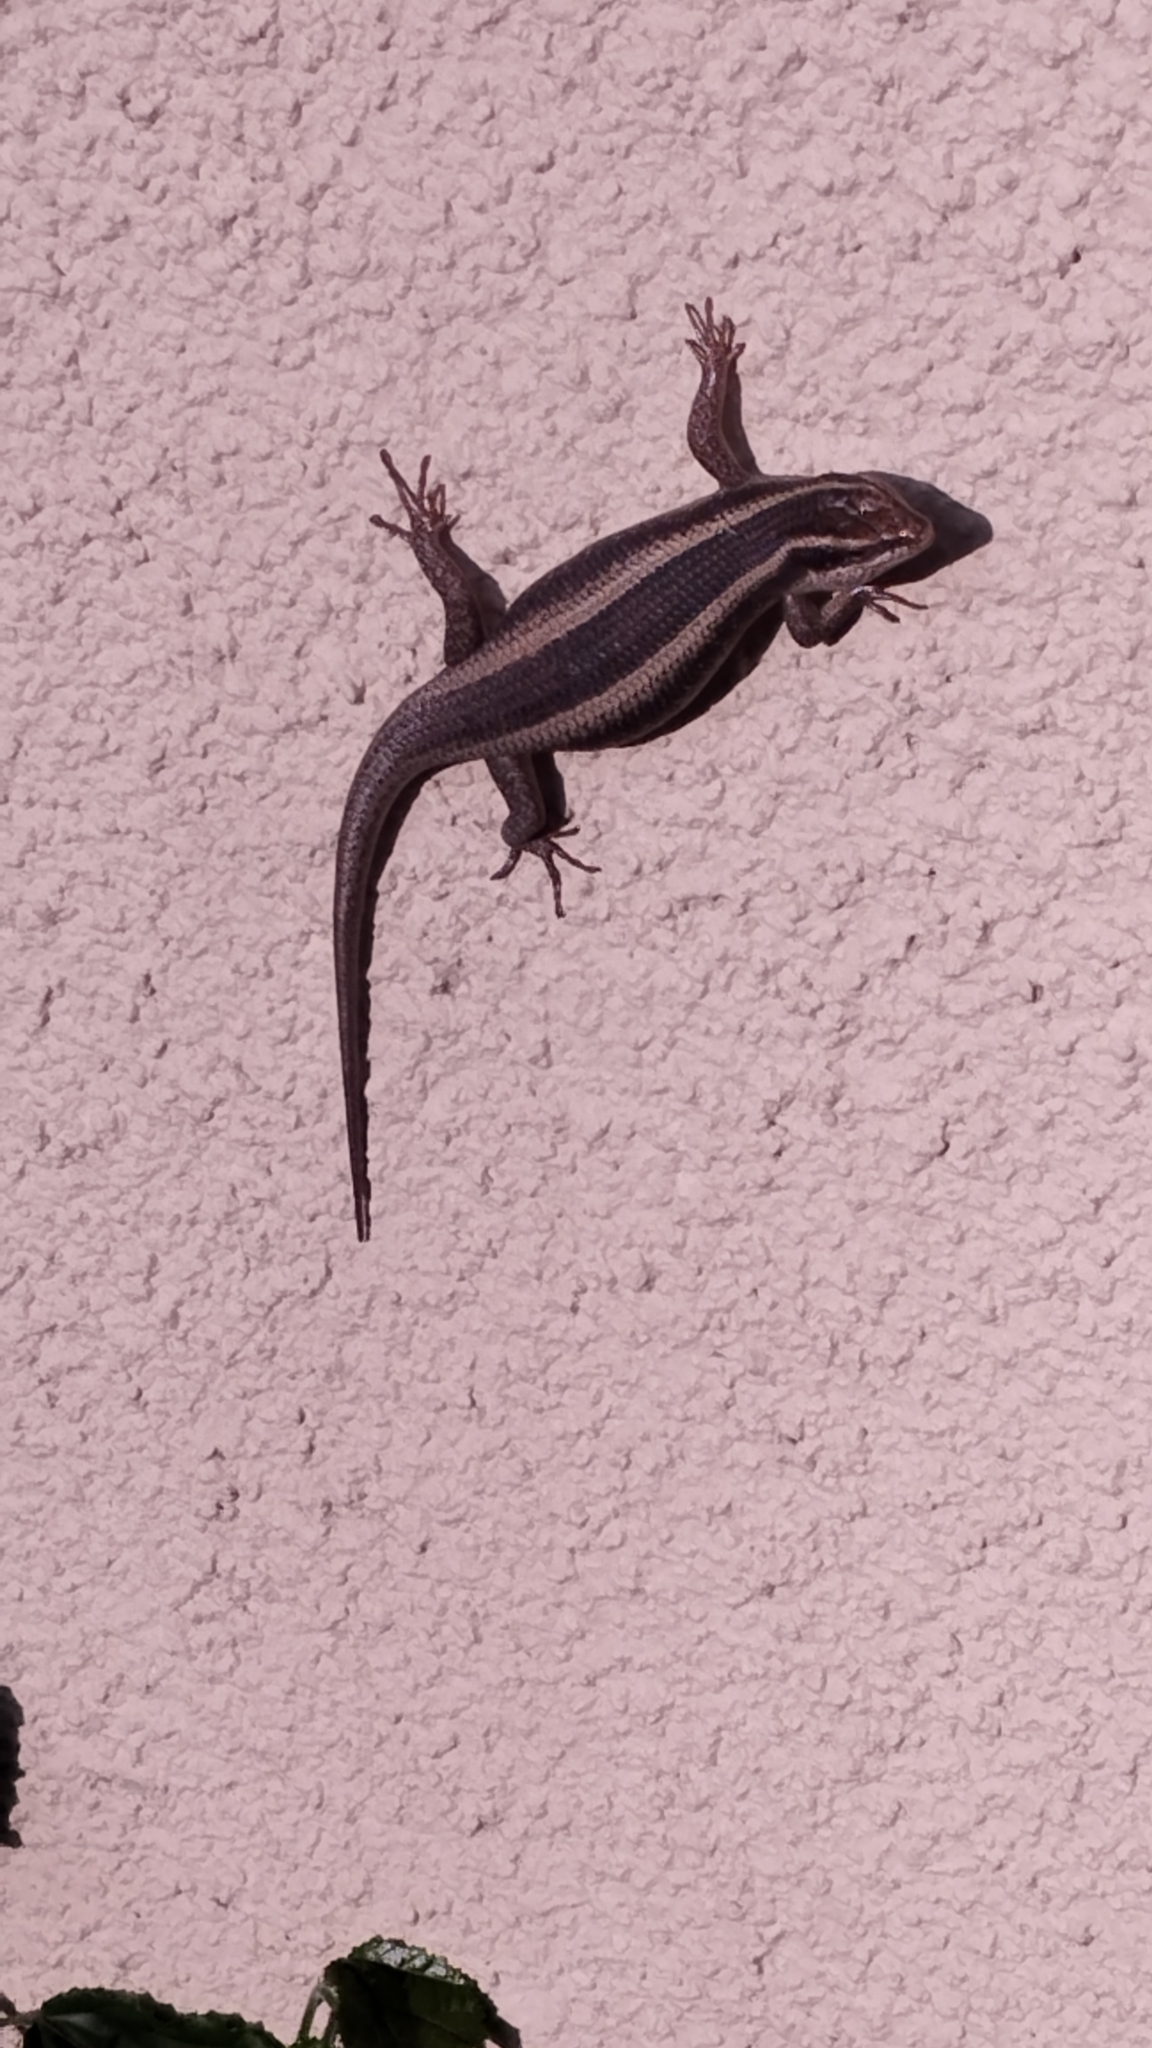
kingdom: Animalia
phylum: Chordata
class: Squamata
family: Scincidae
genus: Trachylepis
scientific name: Trachylepis striata
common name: African striped mabuya
